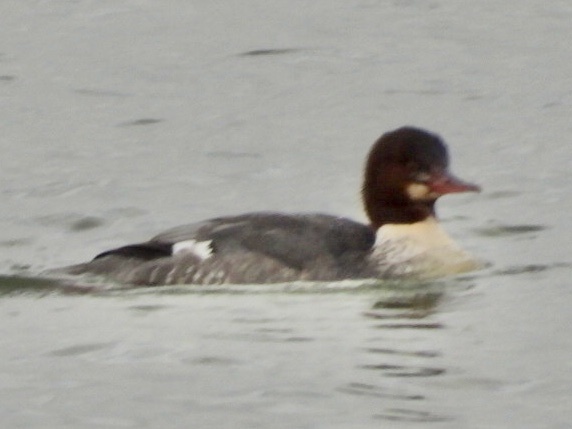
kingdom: Animalia
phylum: Chordata
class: Aves
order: Anseriformes
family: Anatidae
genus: Mergus
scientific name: Mergus merganser
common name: Common merganser
